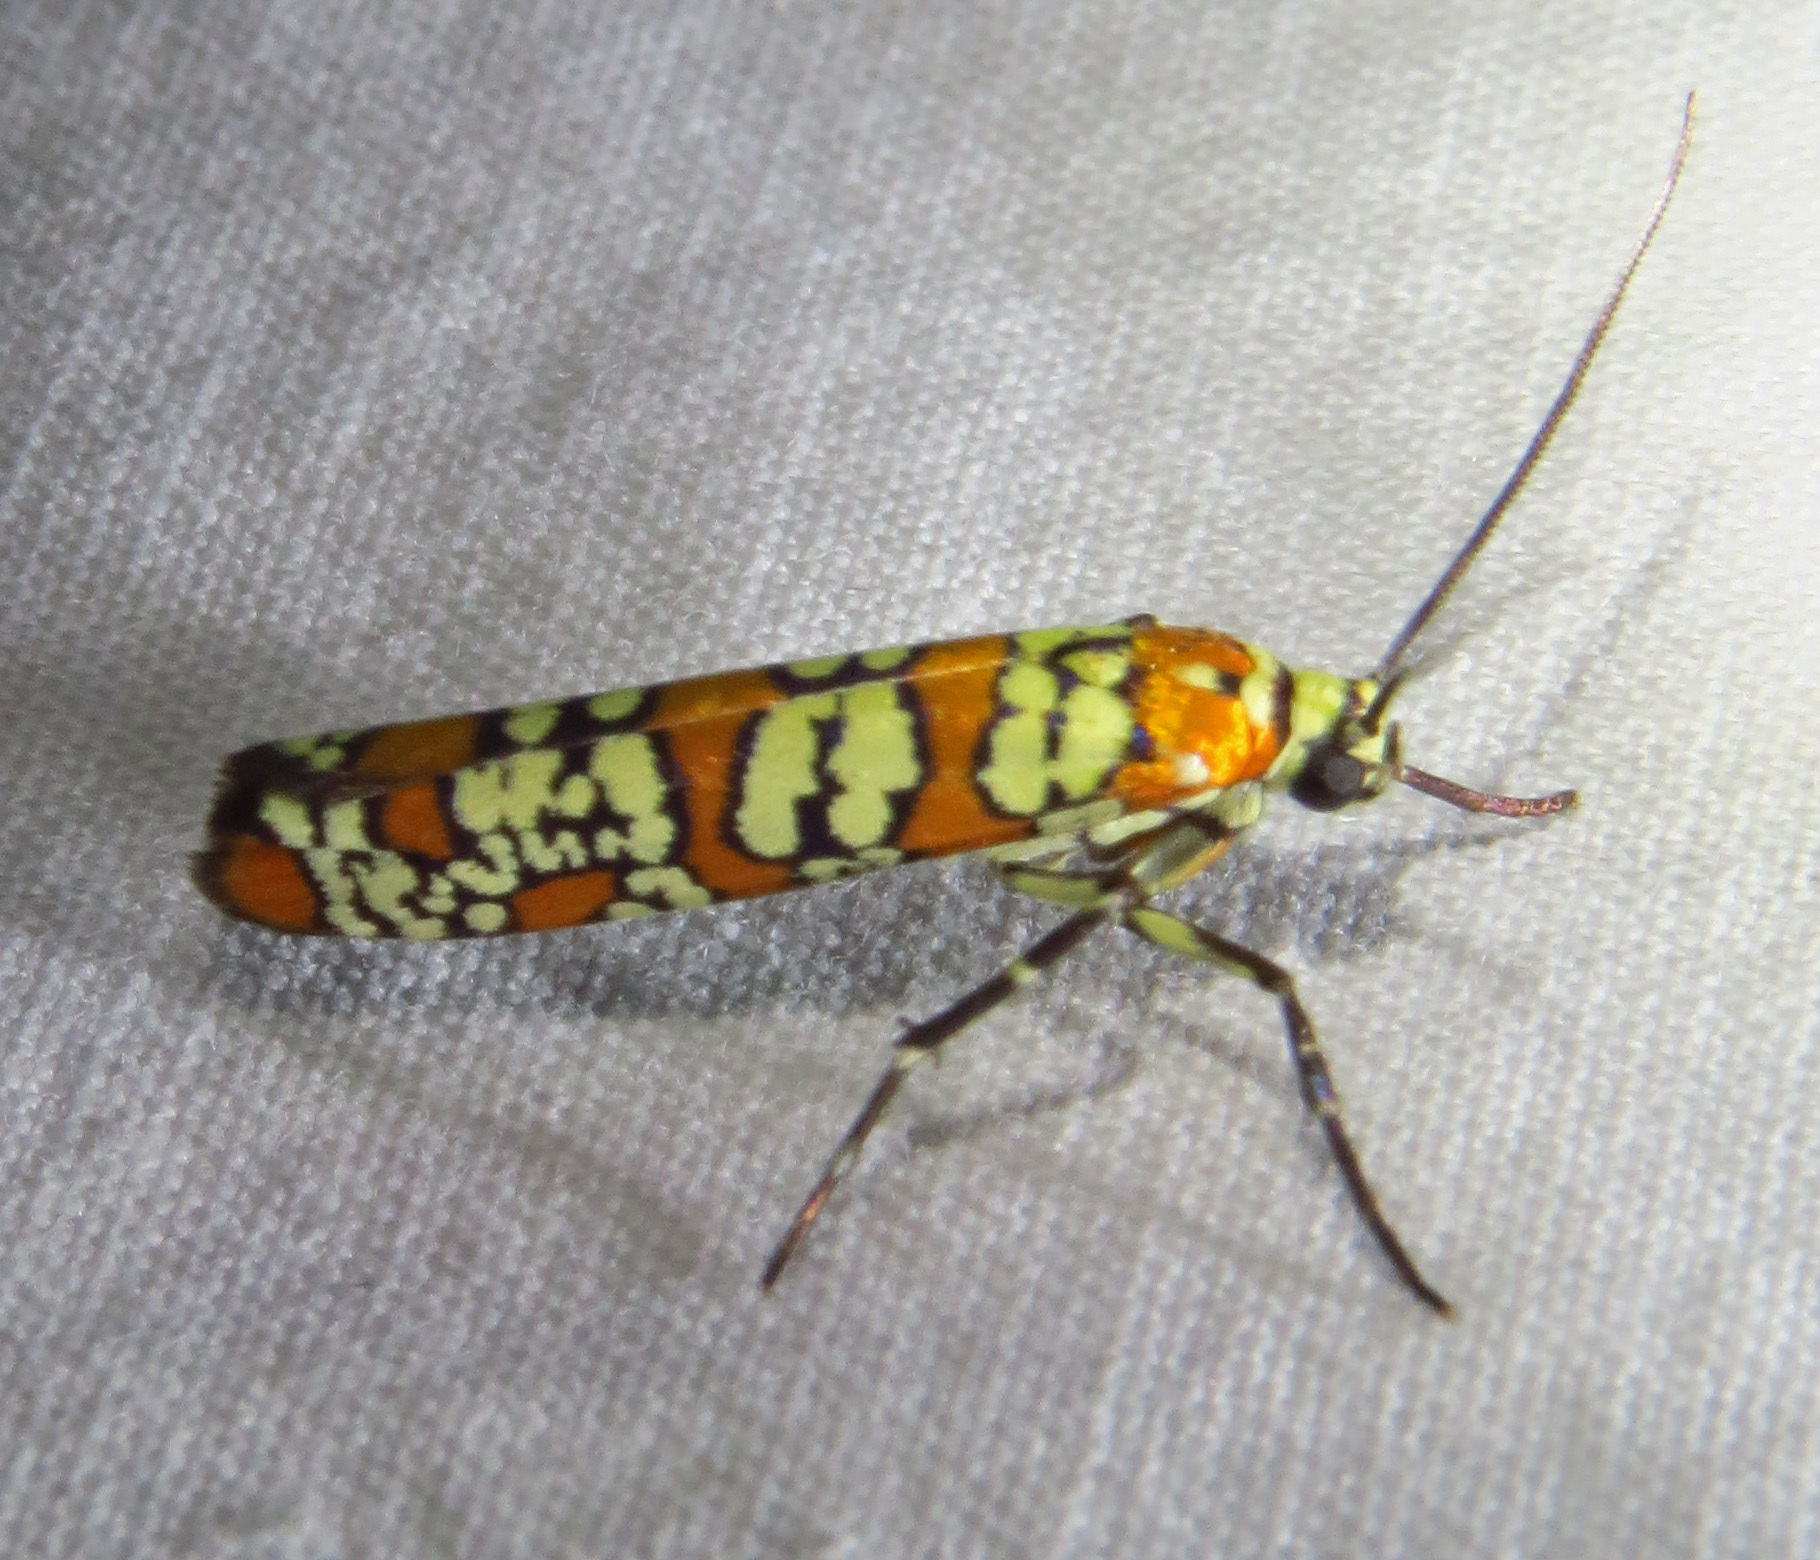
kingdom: Animalia
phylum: Arthropoda
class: Insecta
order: Lepidoptera
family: Attevidae
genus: Atteva
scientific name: Atteva punctella
